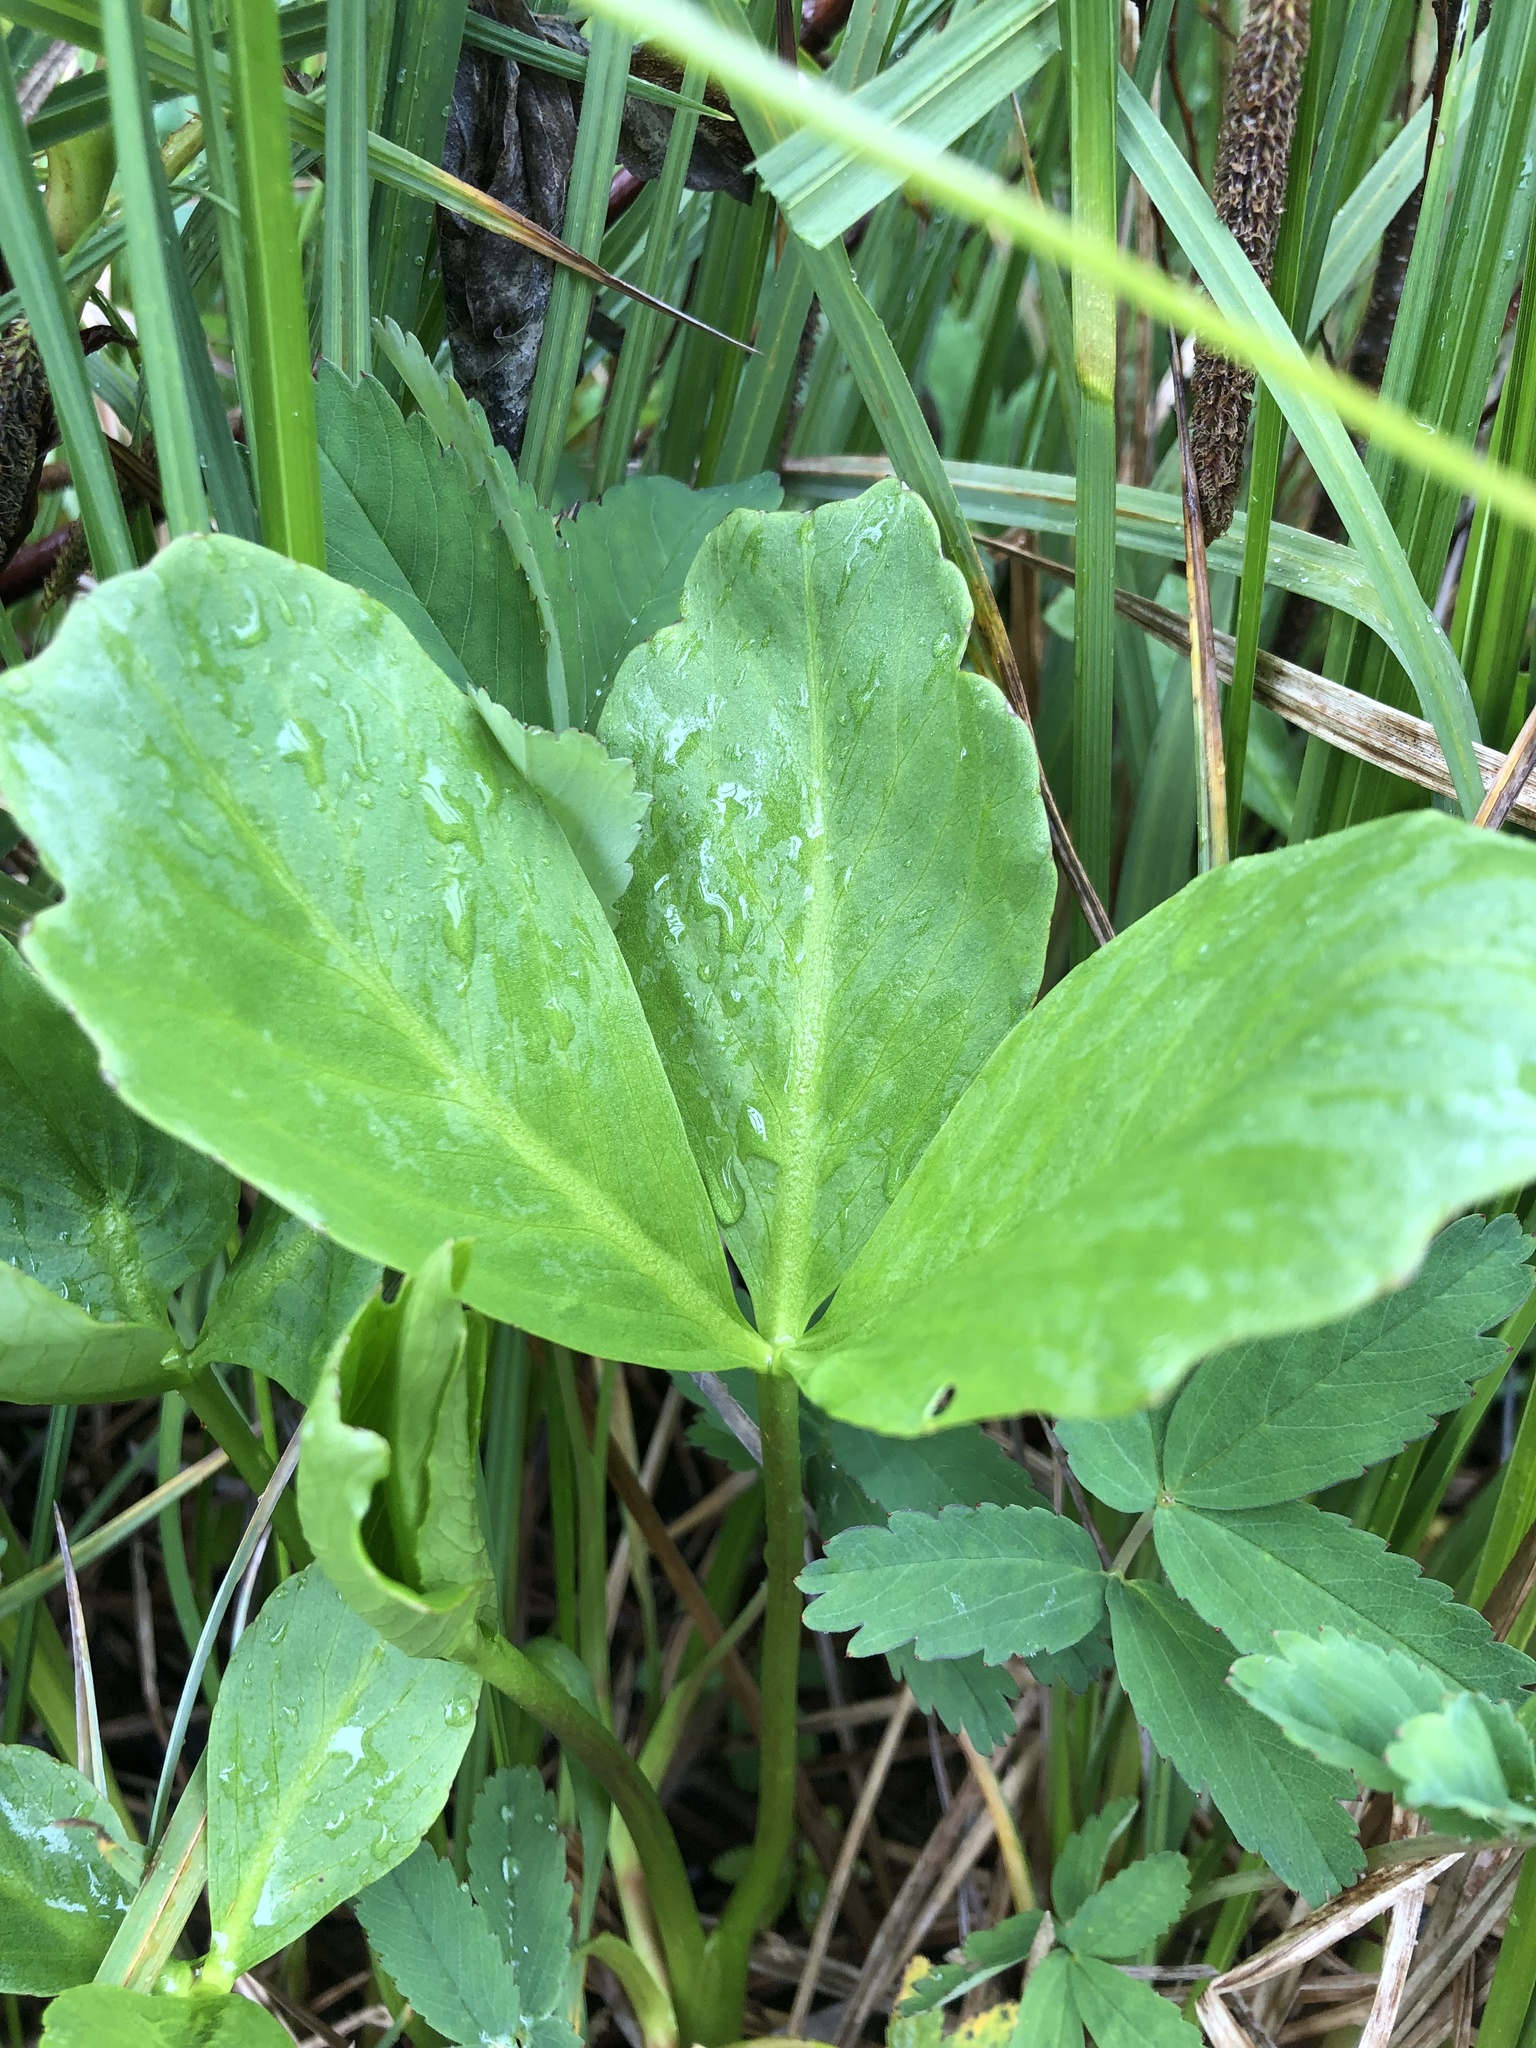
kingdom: Plantae
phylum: Tracheophyta
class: Magnoliopsida
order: Asterales
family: Menyanthaceae
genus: Menyanthes
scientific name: Menyanthes trifoliata
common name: Bogbean
